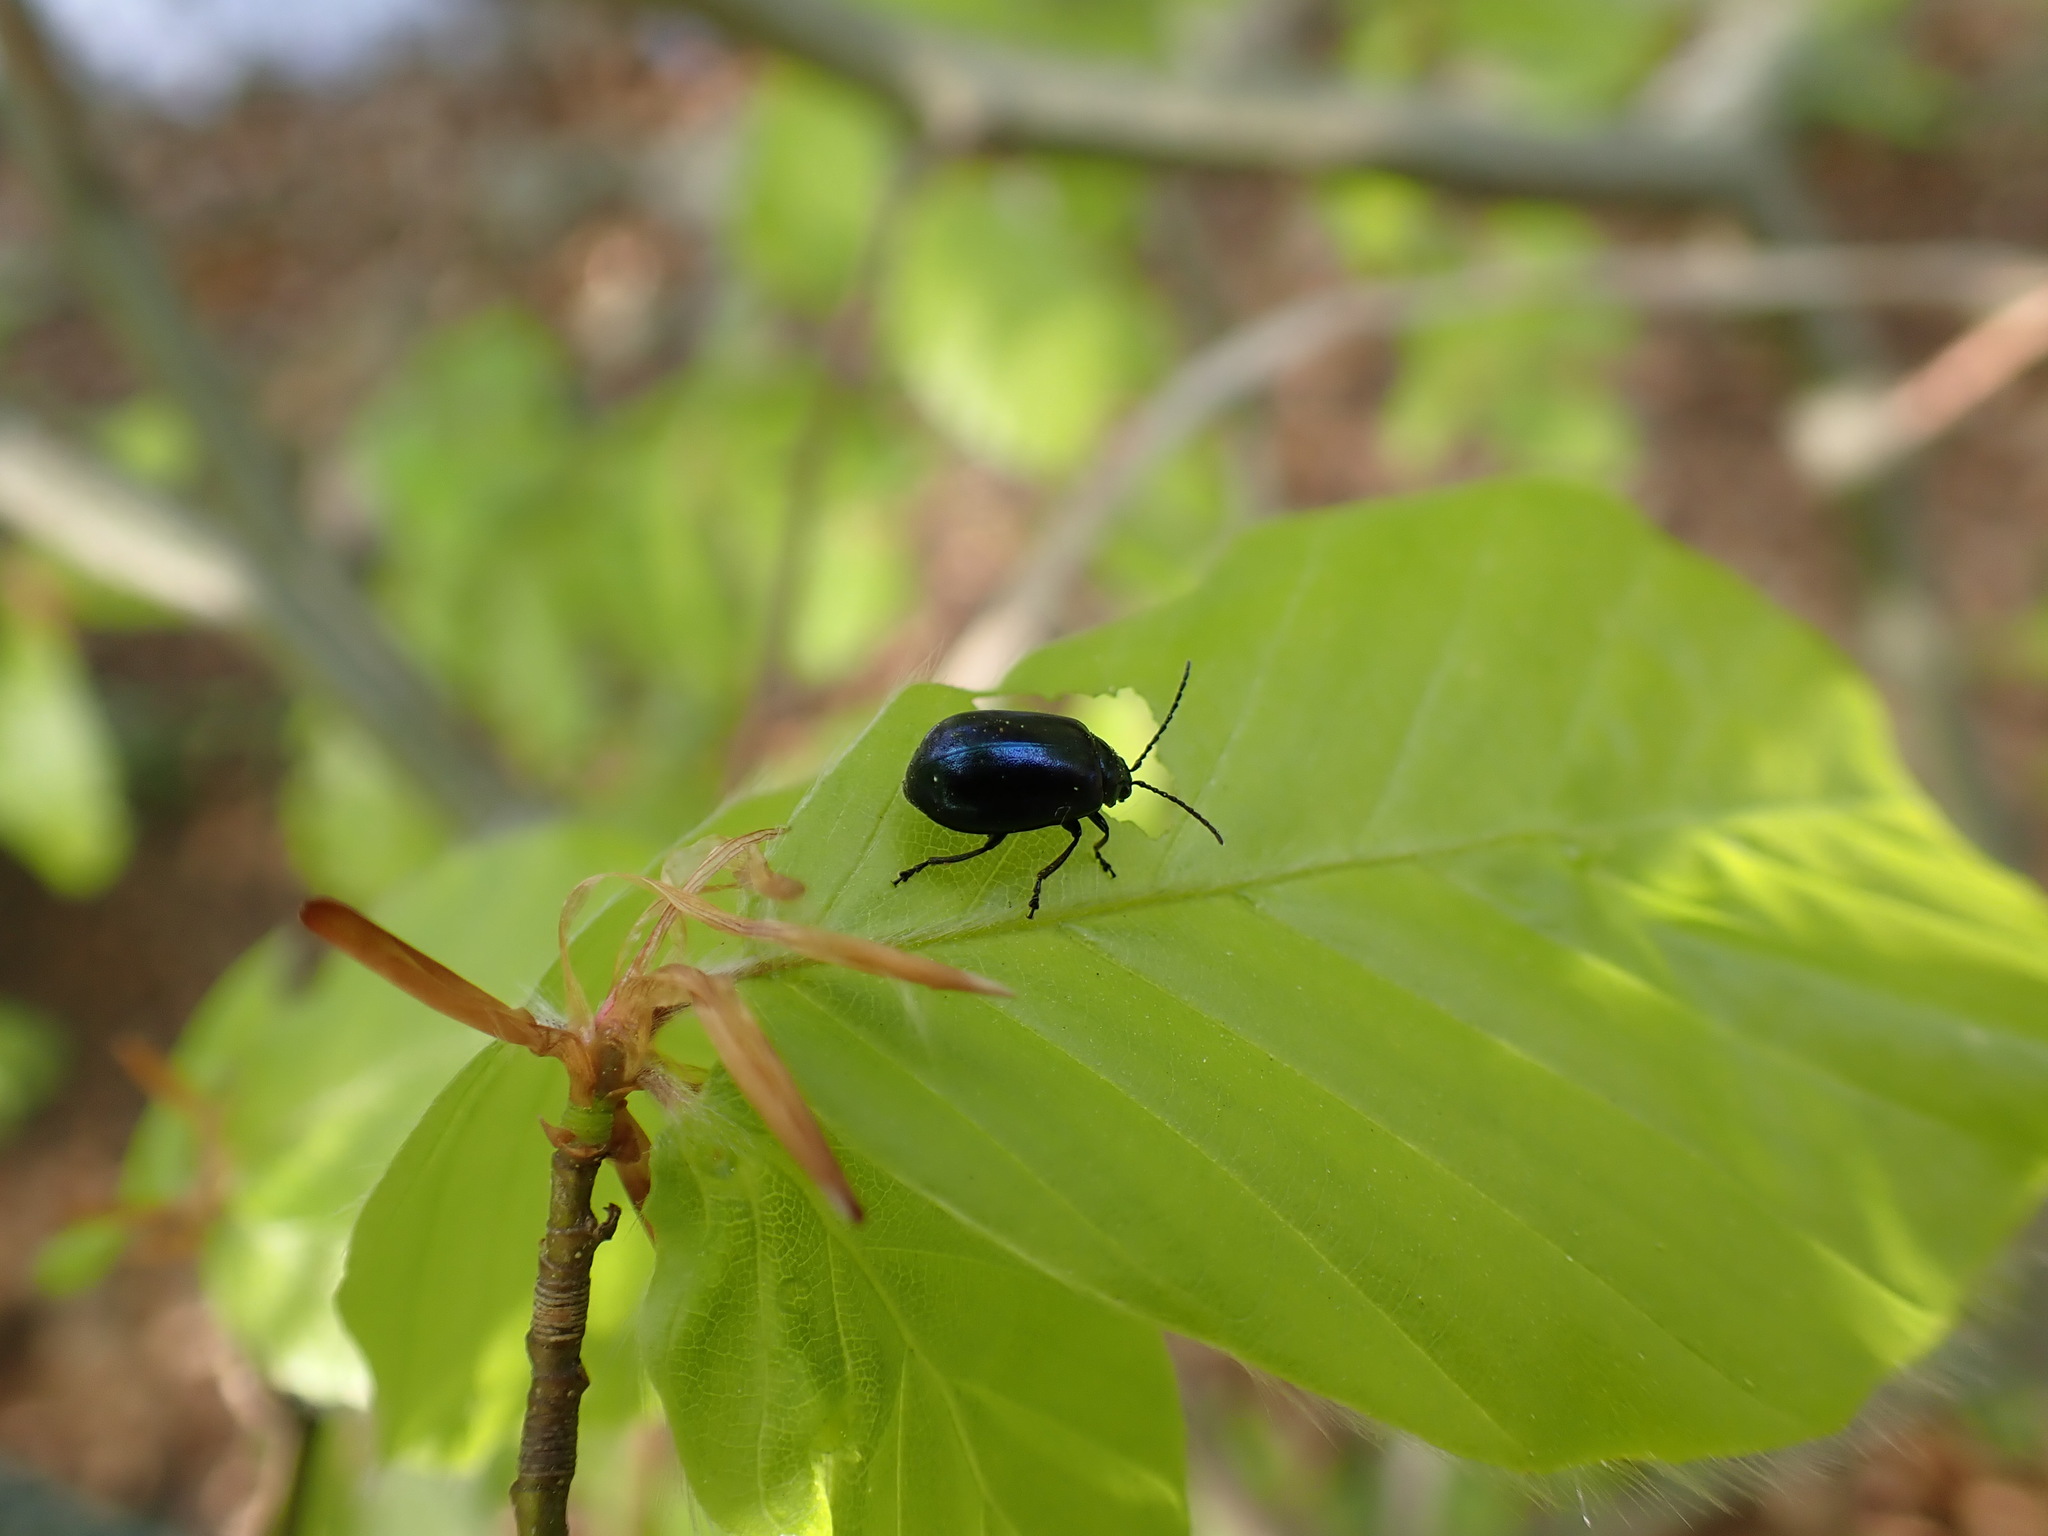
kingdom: Animalia
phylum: Arthropoda
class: Insecta
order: Coleoptera
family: Chrysomelidae
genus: Agelastica
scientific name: Agelastica alni
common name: Alder leaf beetle
